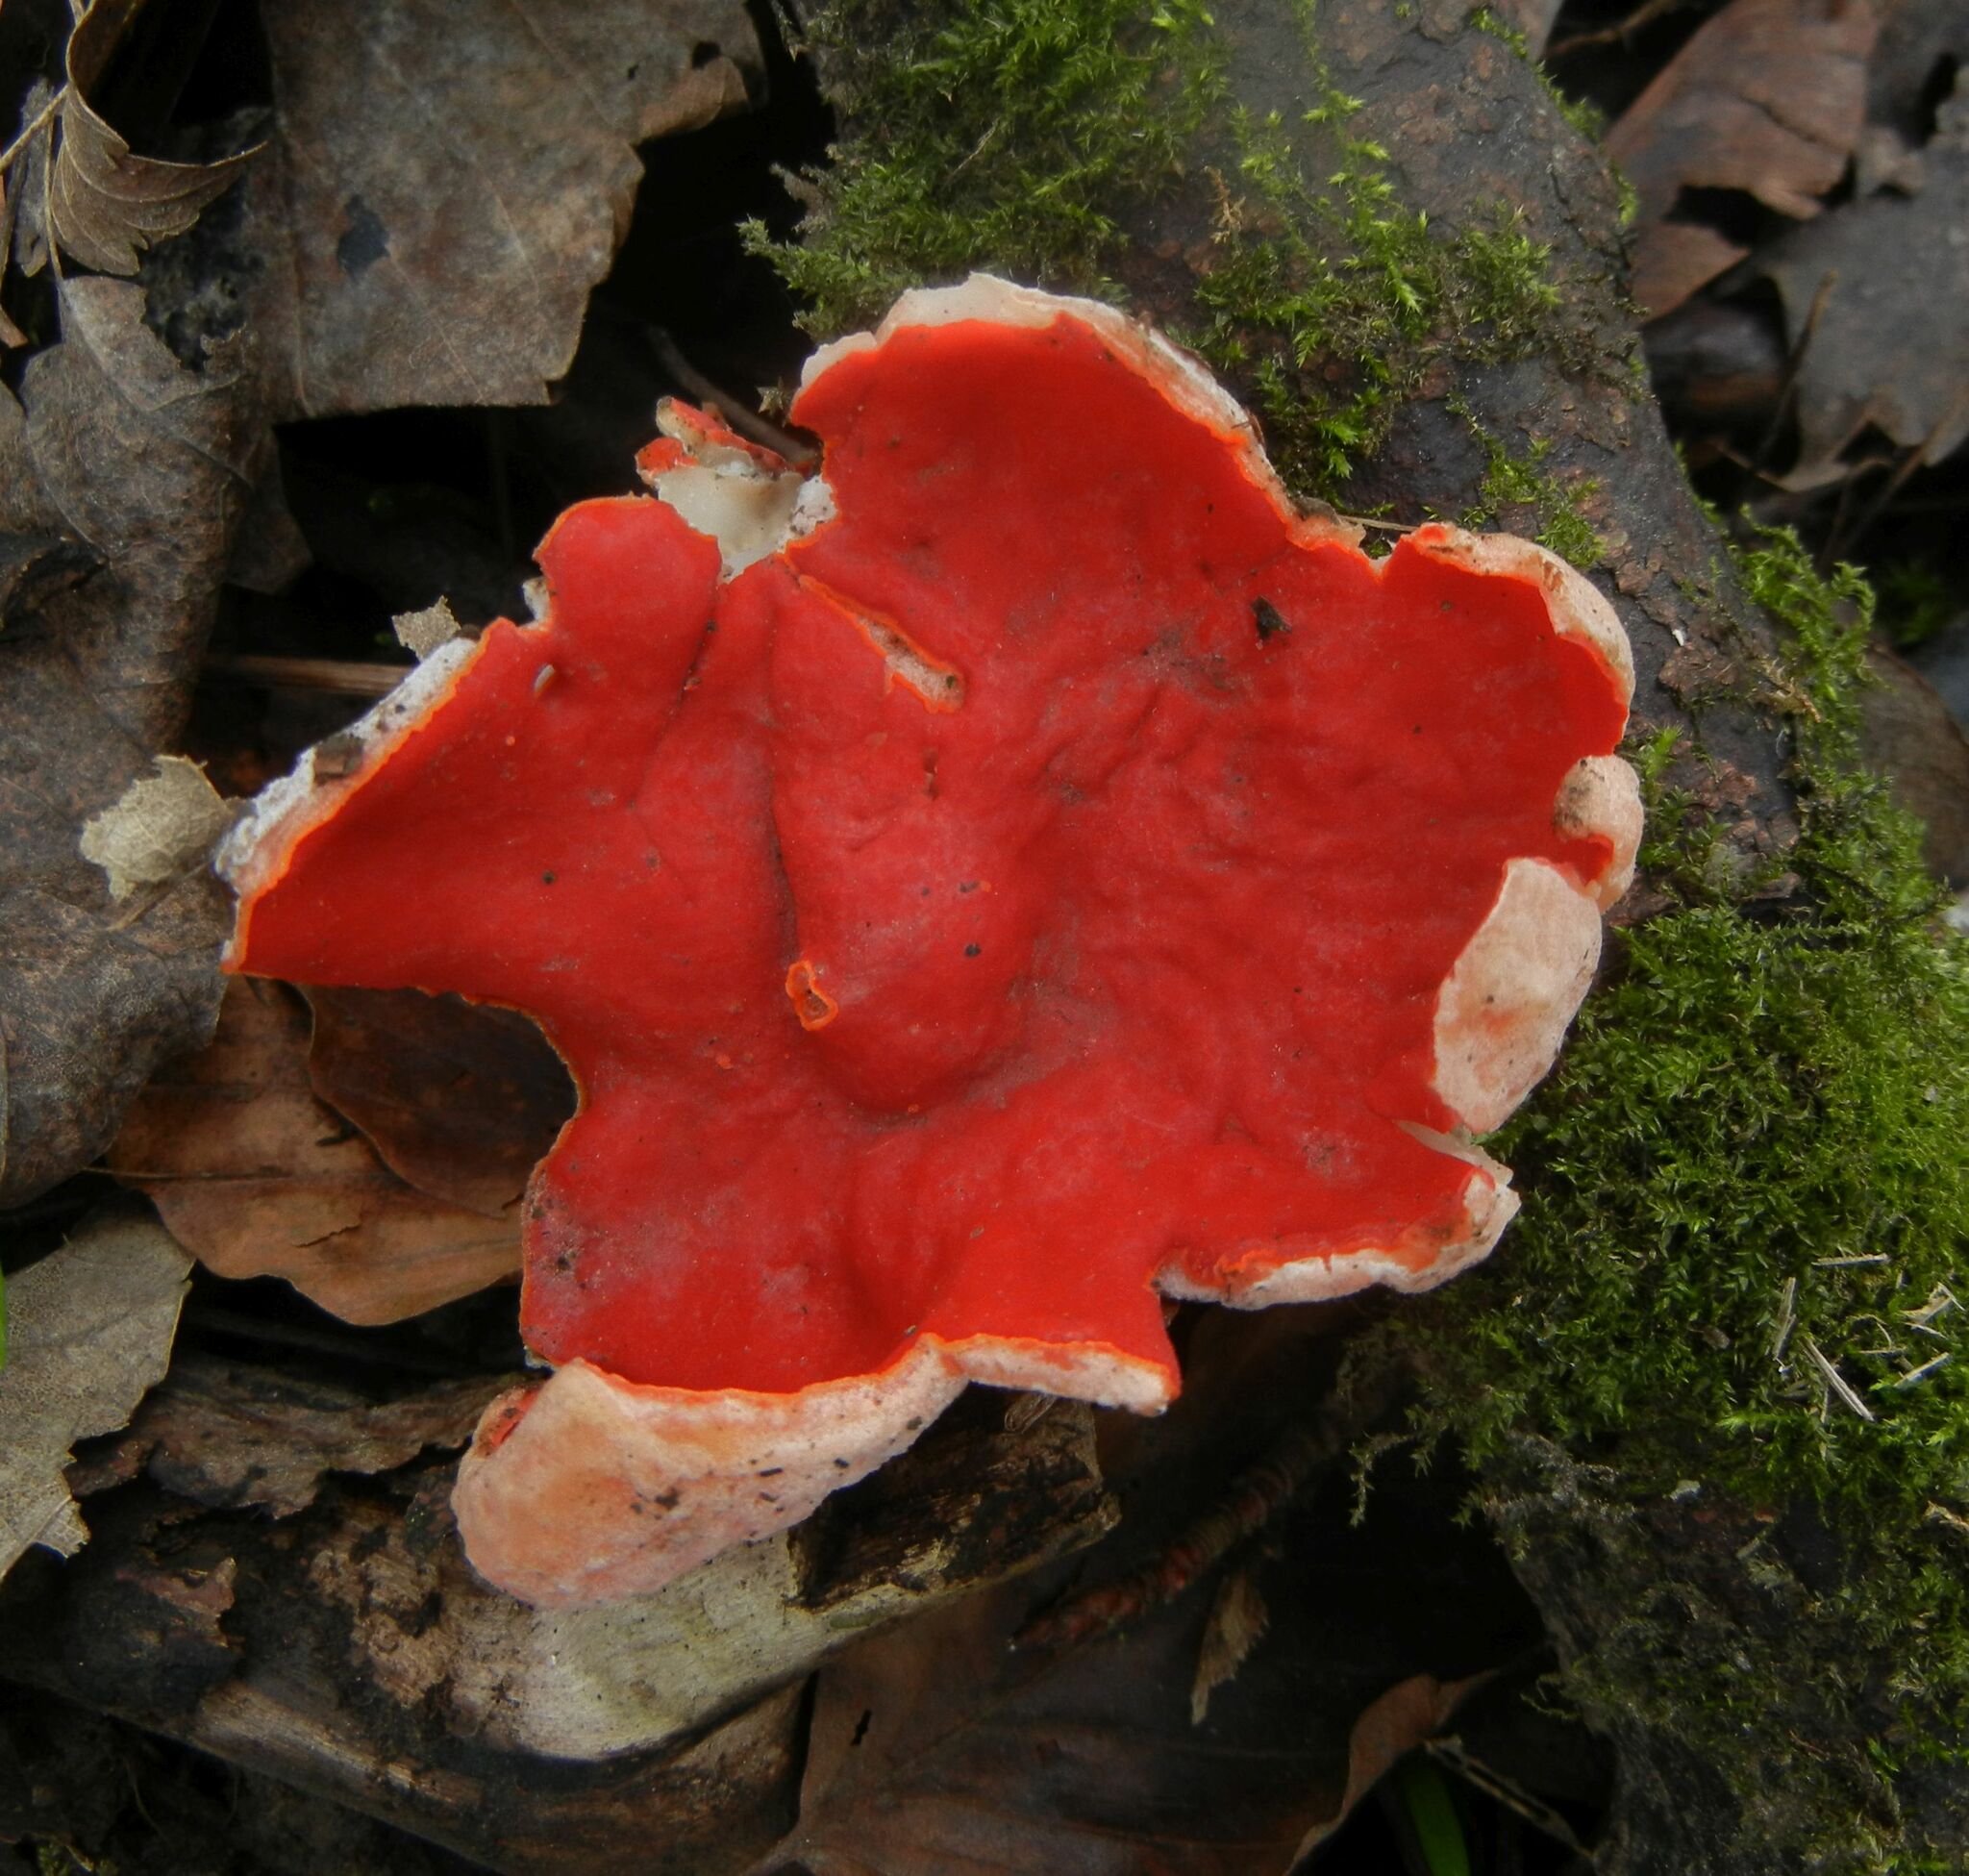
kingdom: Fungi
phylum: Ascomycota
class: Pezizomycetes
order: Pezizales
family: Sarcoscyphaceae
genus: Sarcoscypha
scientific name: Sarcoscypha
